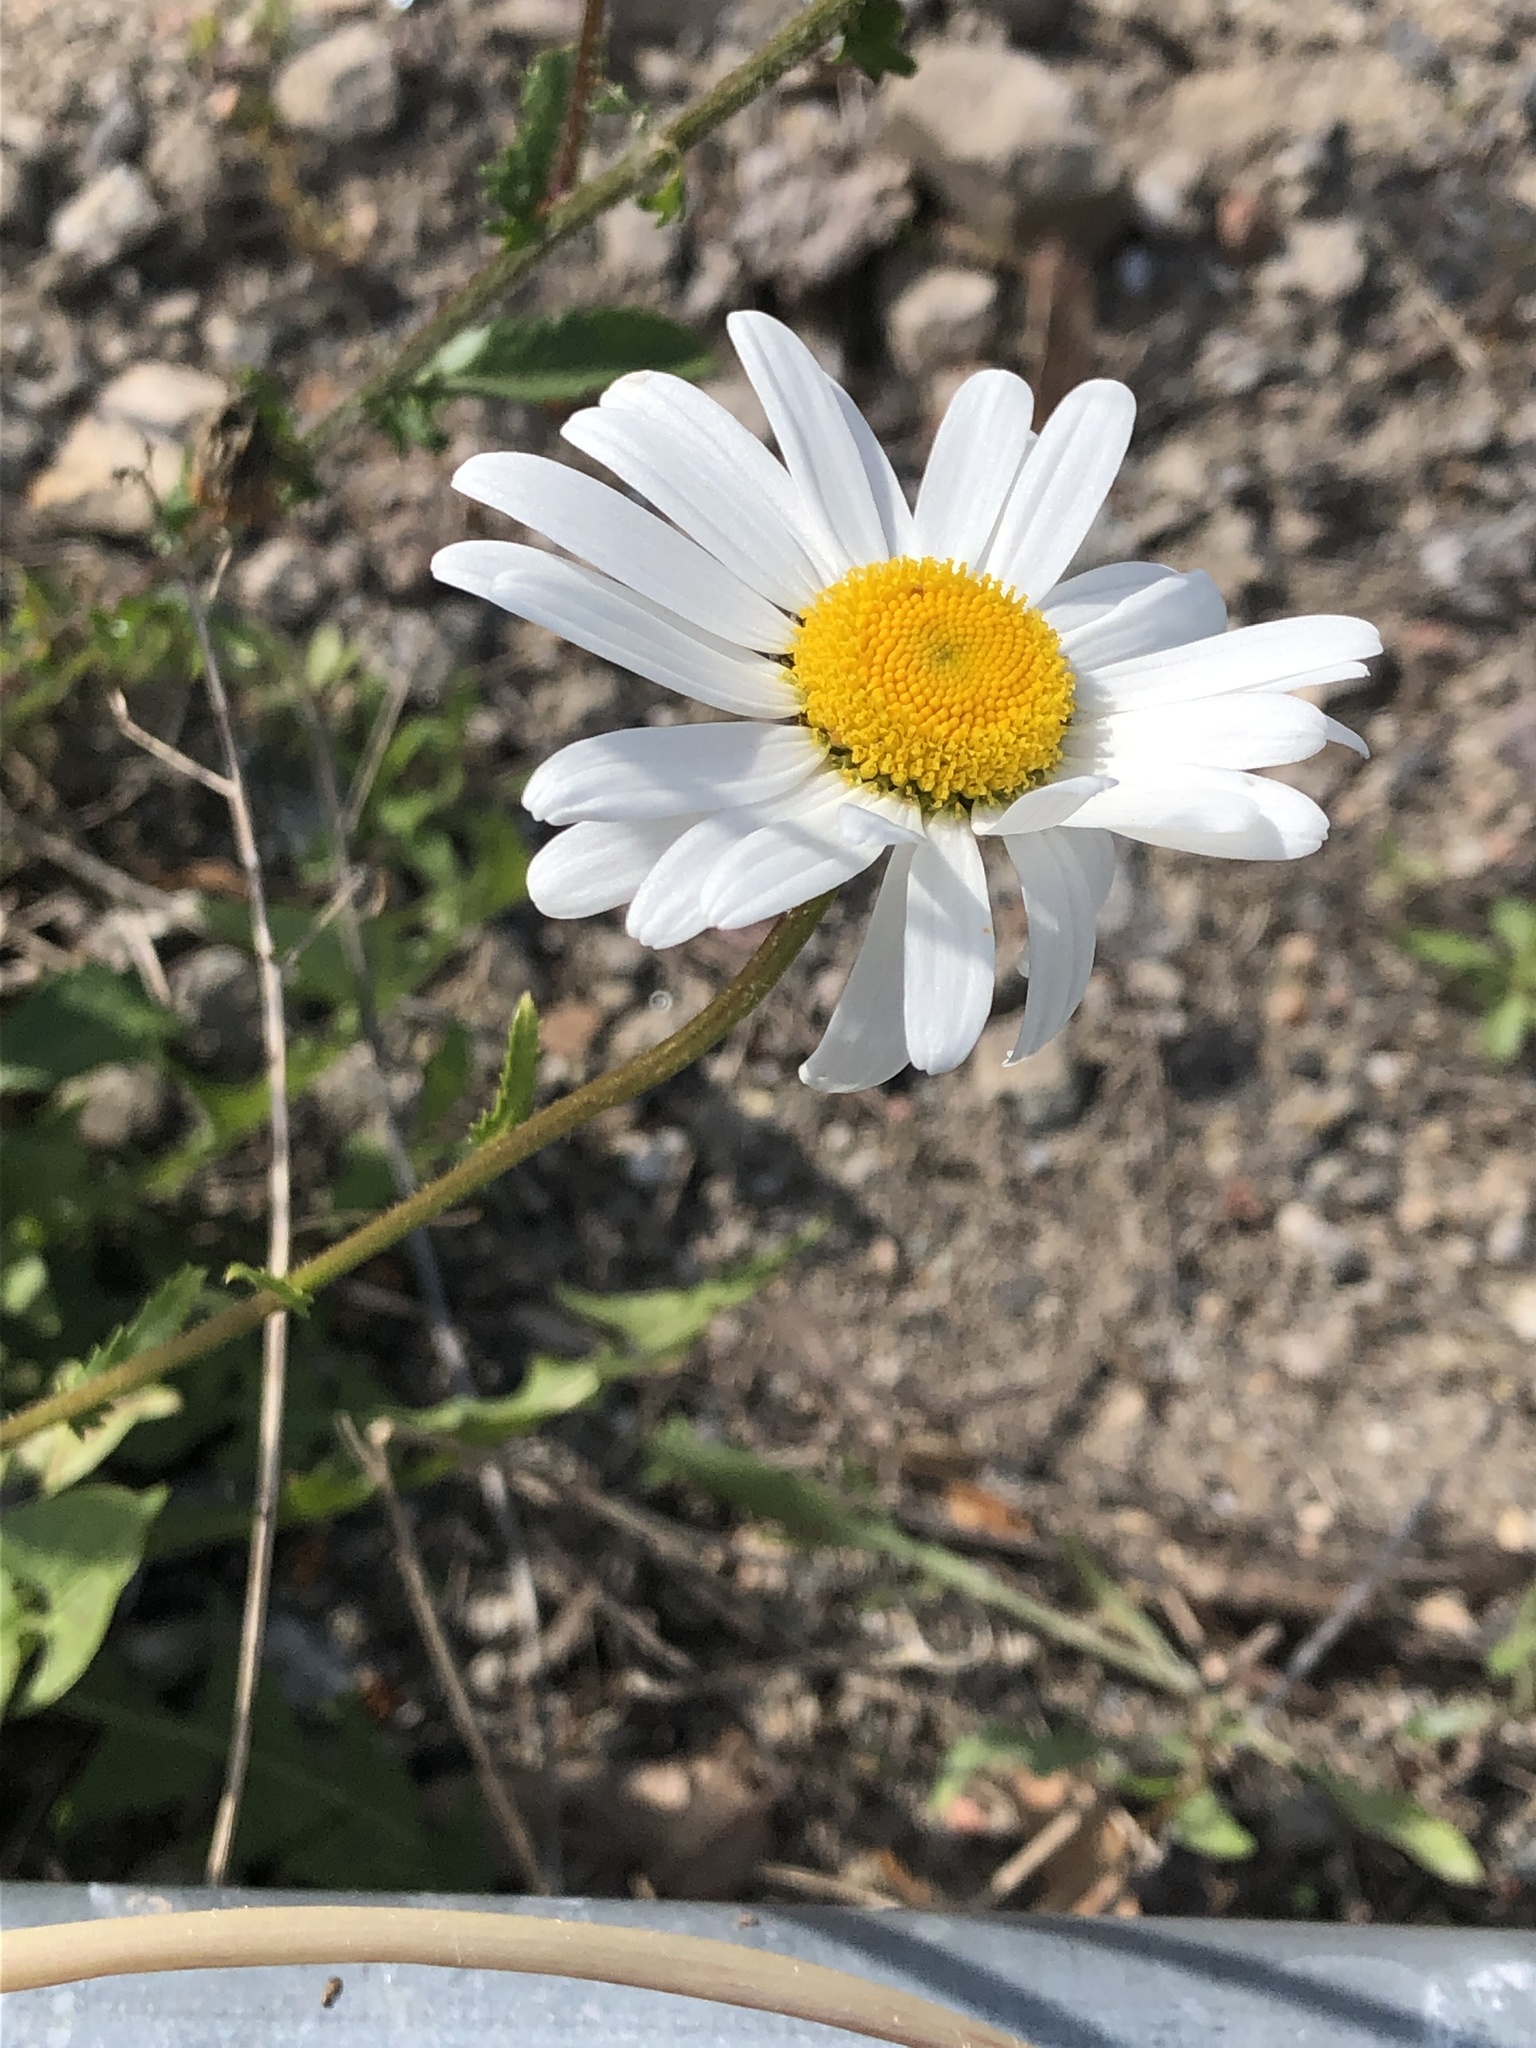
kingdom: Plantae
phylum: Tracheophyta
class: Magnoliopsida
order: Asterales
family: Asteraceae
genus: Leucanthemum
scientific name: Leucanthemum vulgare
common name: Oxeye daisy
